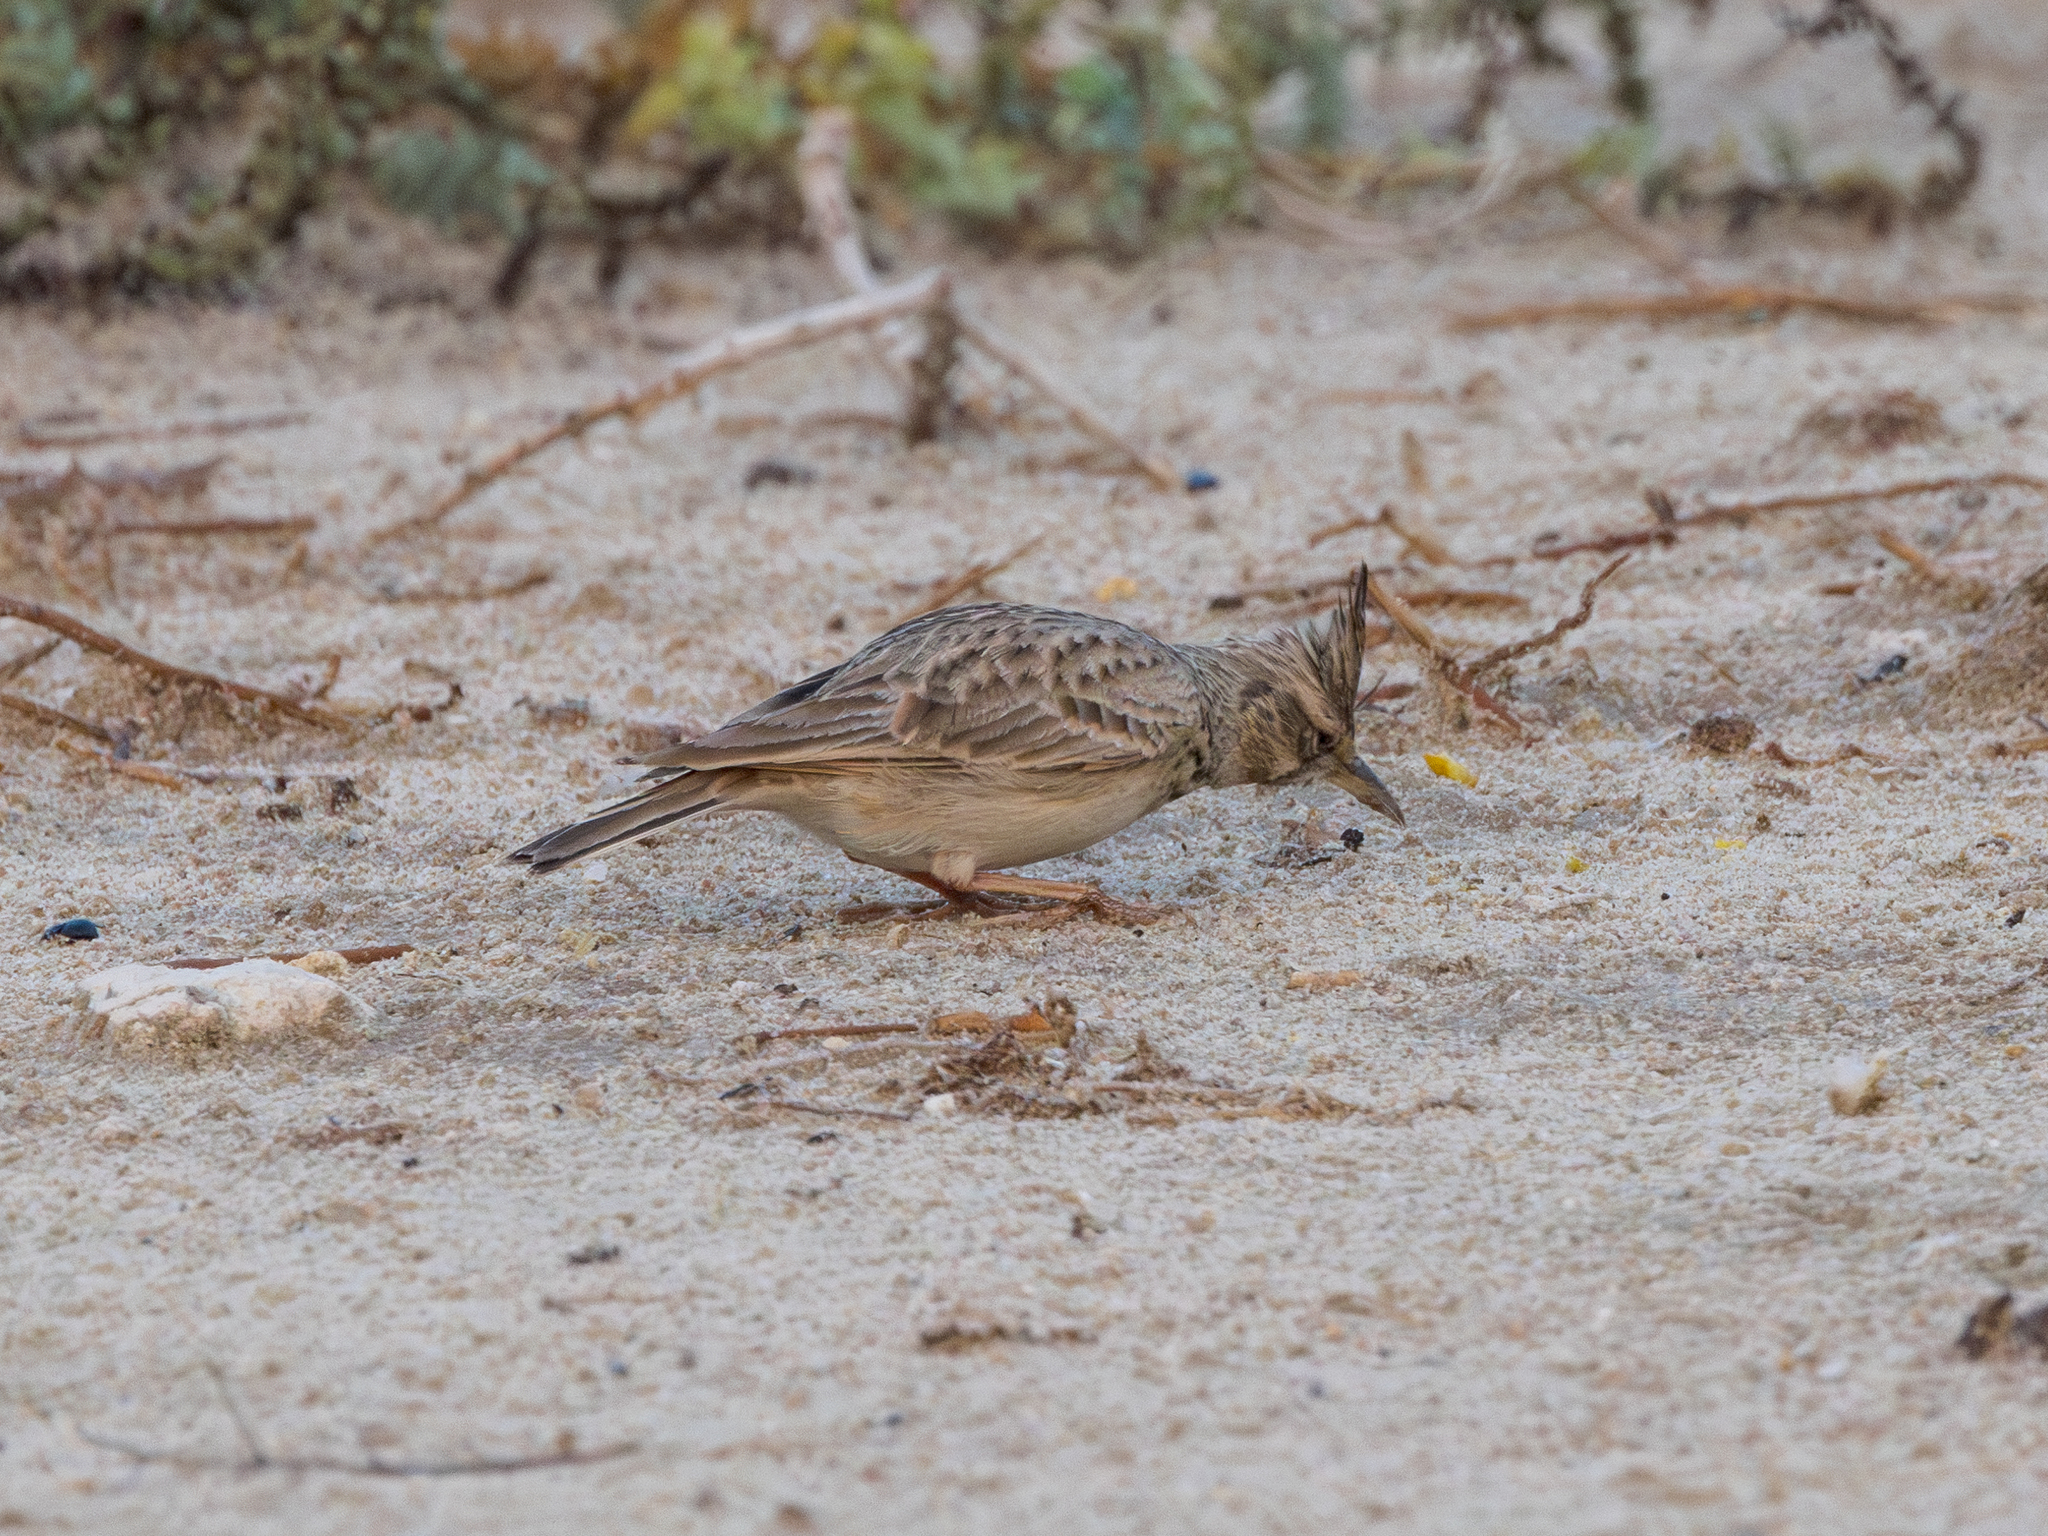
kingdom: Animalia
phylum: Chordata
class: Aves
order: Passeriformes
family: Alaudidae
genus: Galerida
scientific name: Galerida cristata
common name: Crested lark
